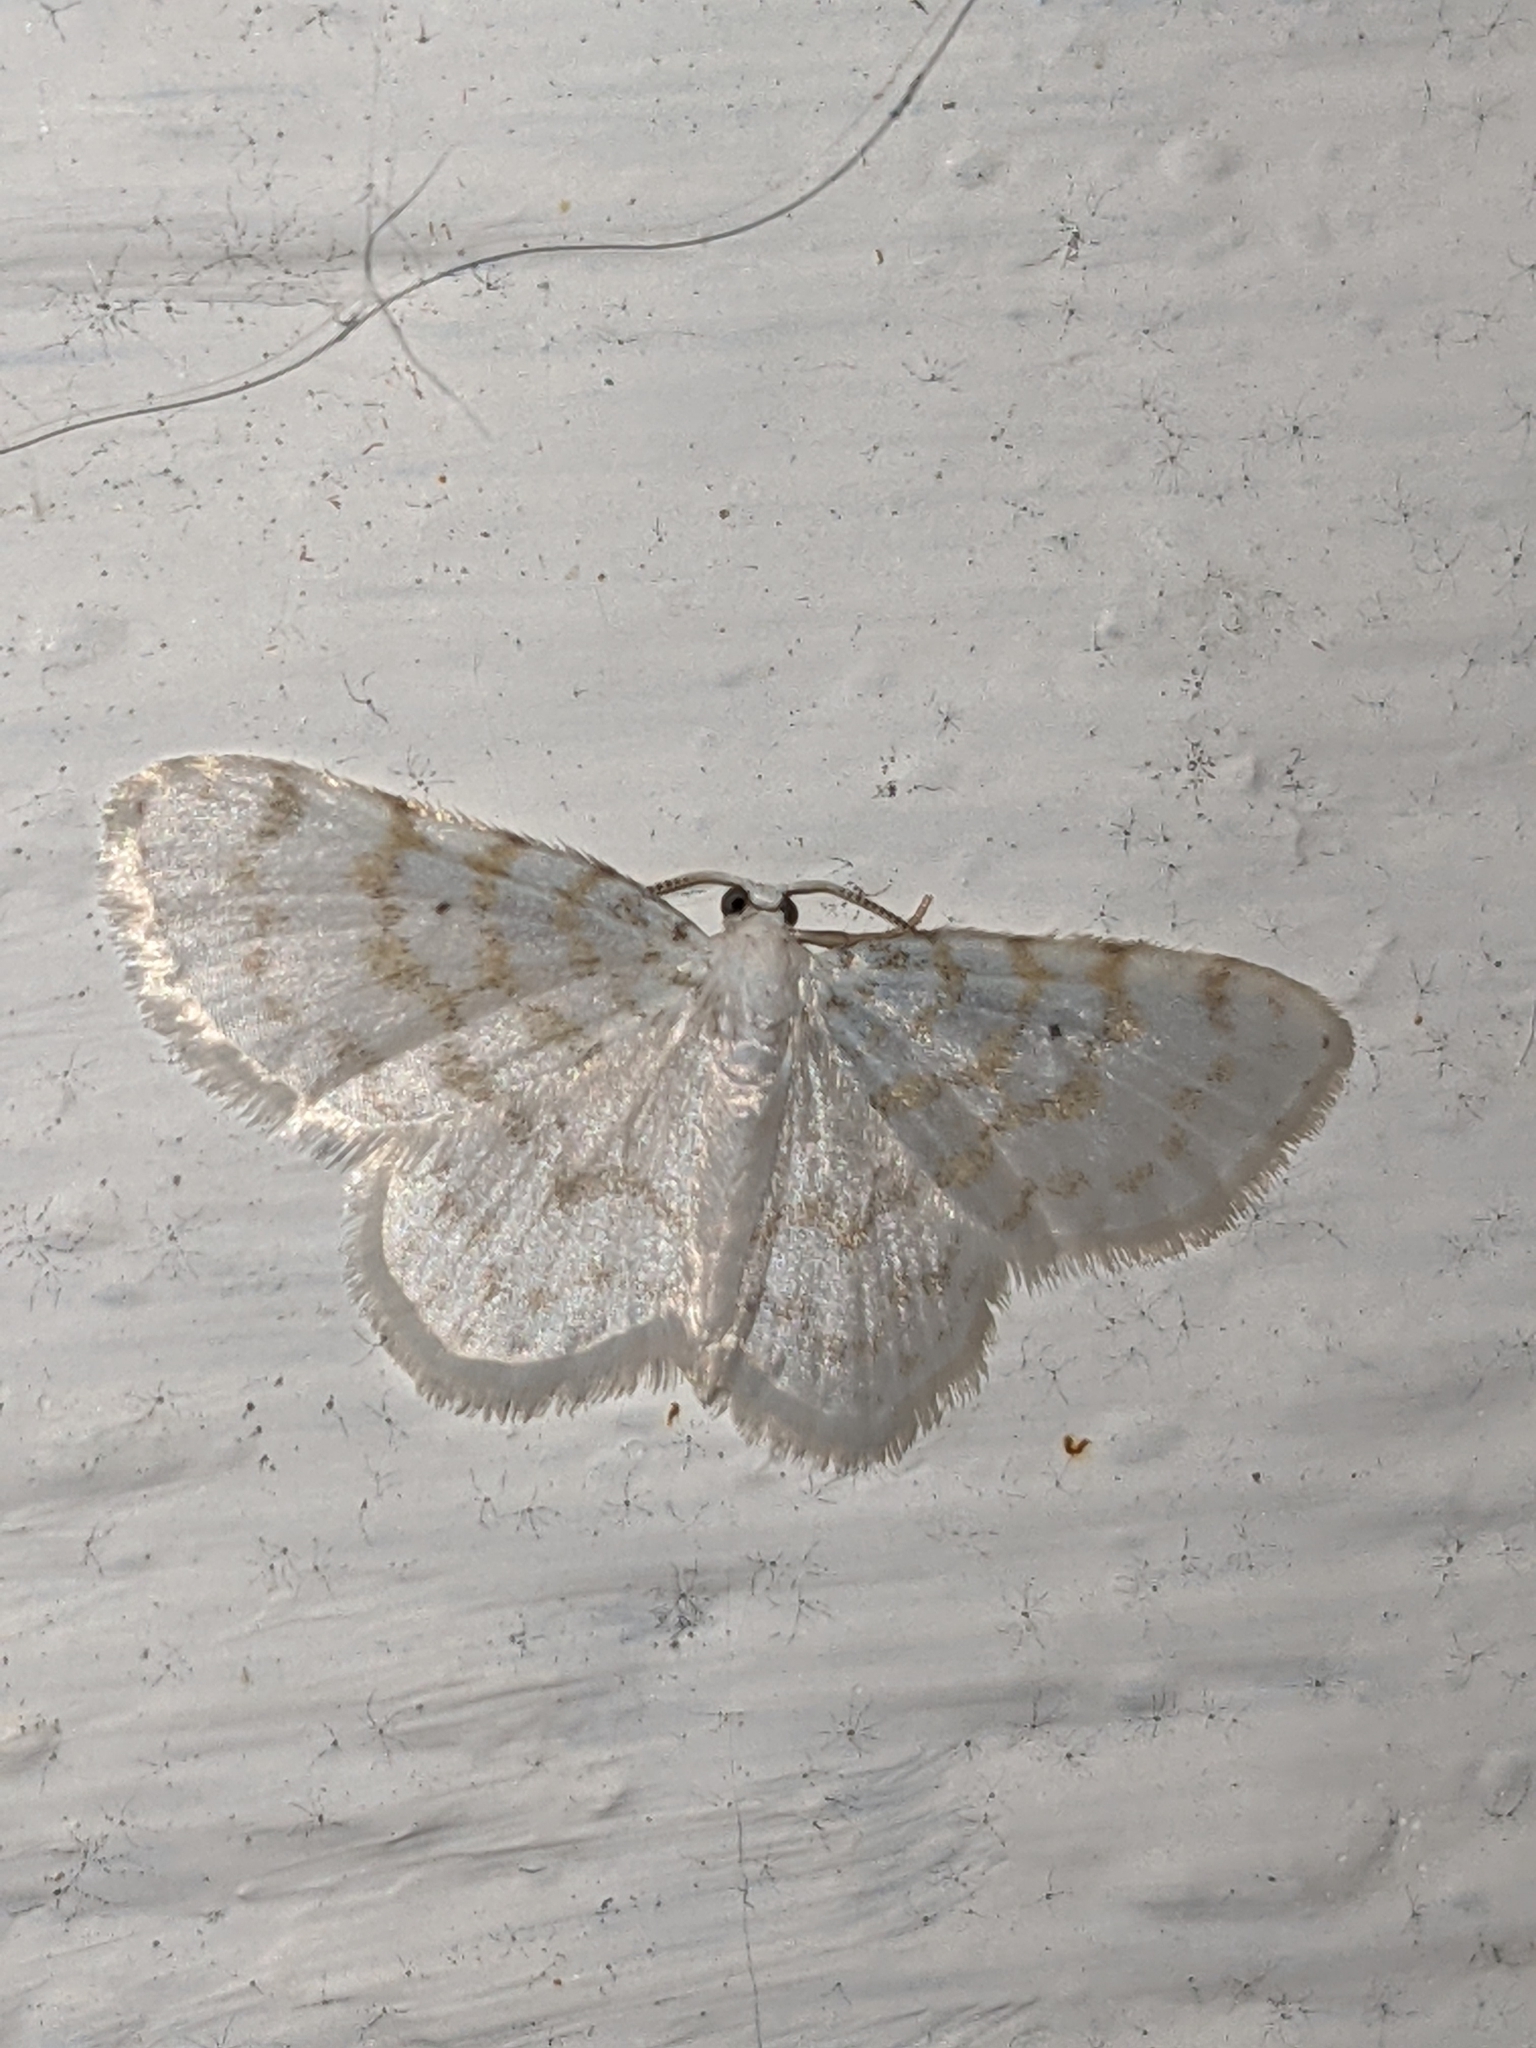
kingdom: Animalia
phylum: Arthropoda
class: Insecta
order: Lepidoptera
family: Geometridae
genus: Hydrelia
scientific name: Hydrelia albifera
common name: Fragile white carpet
